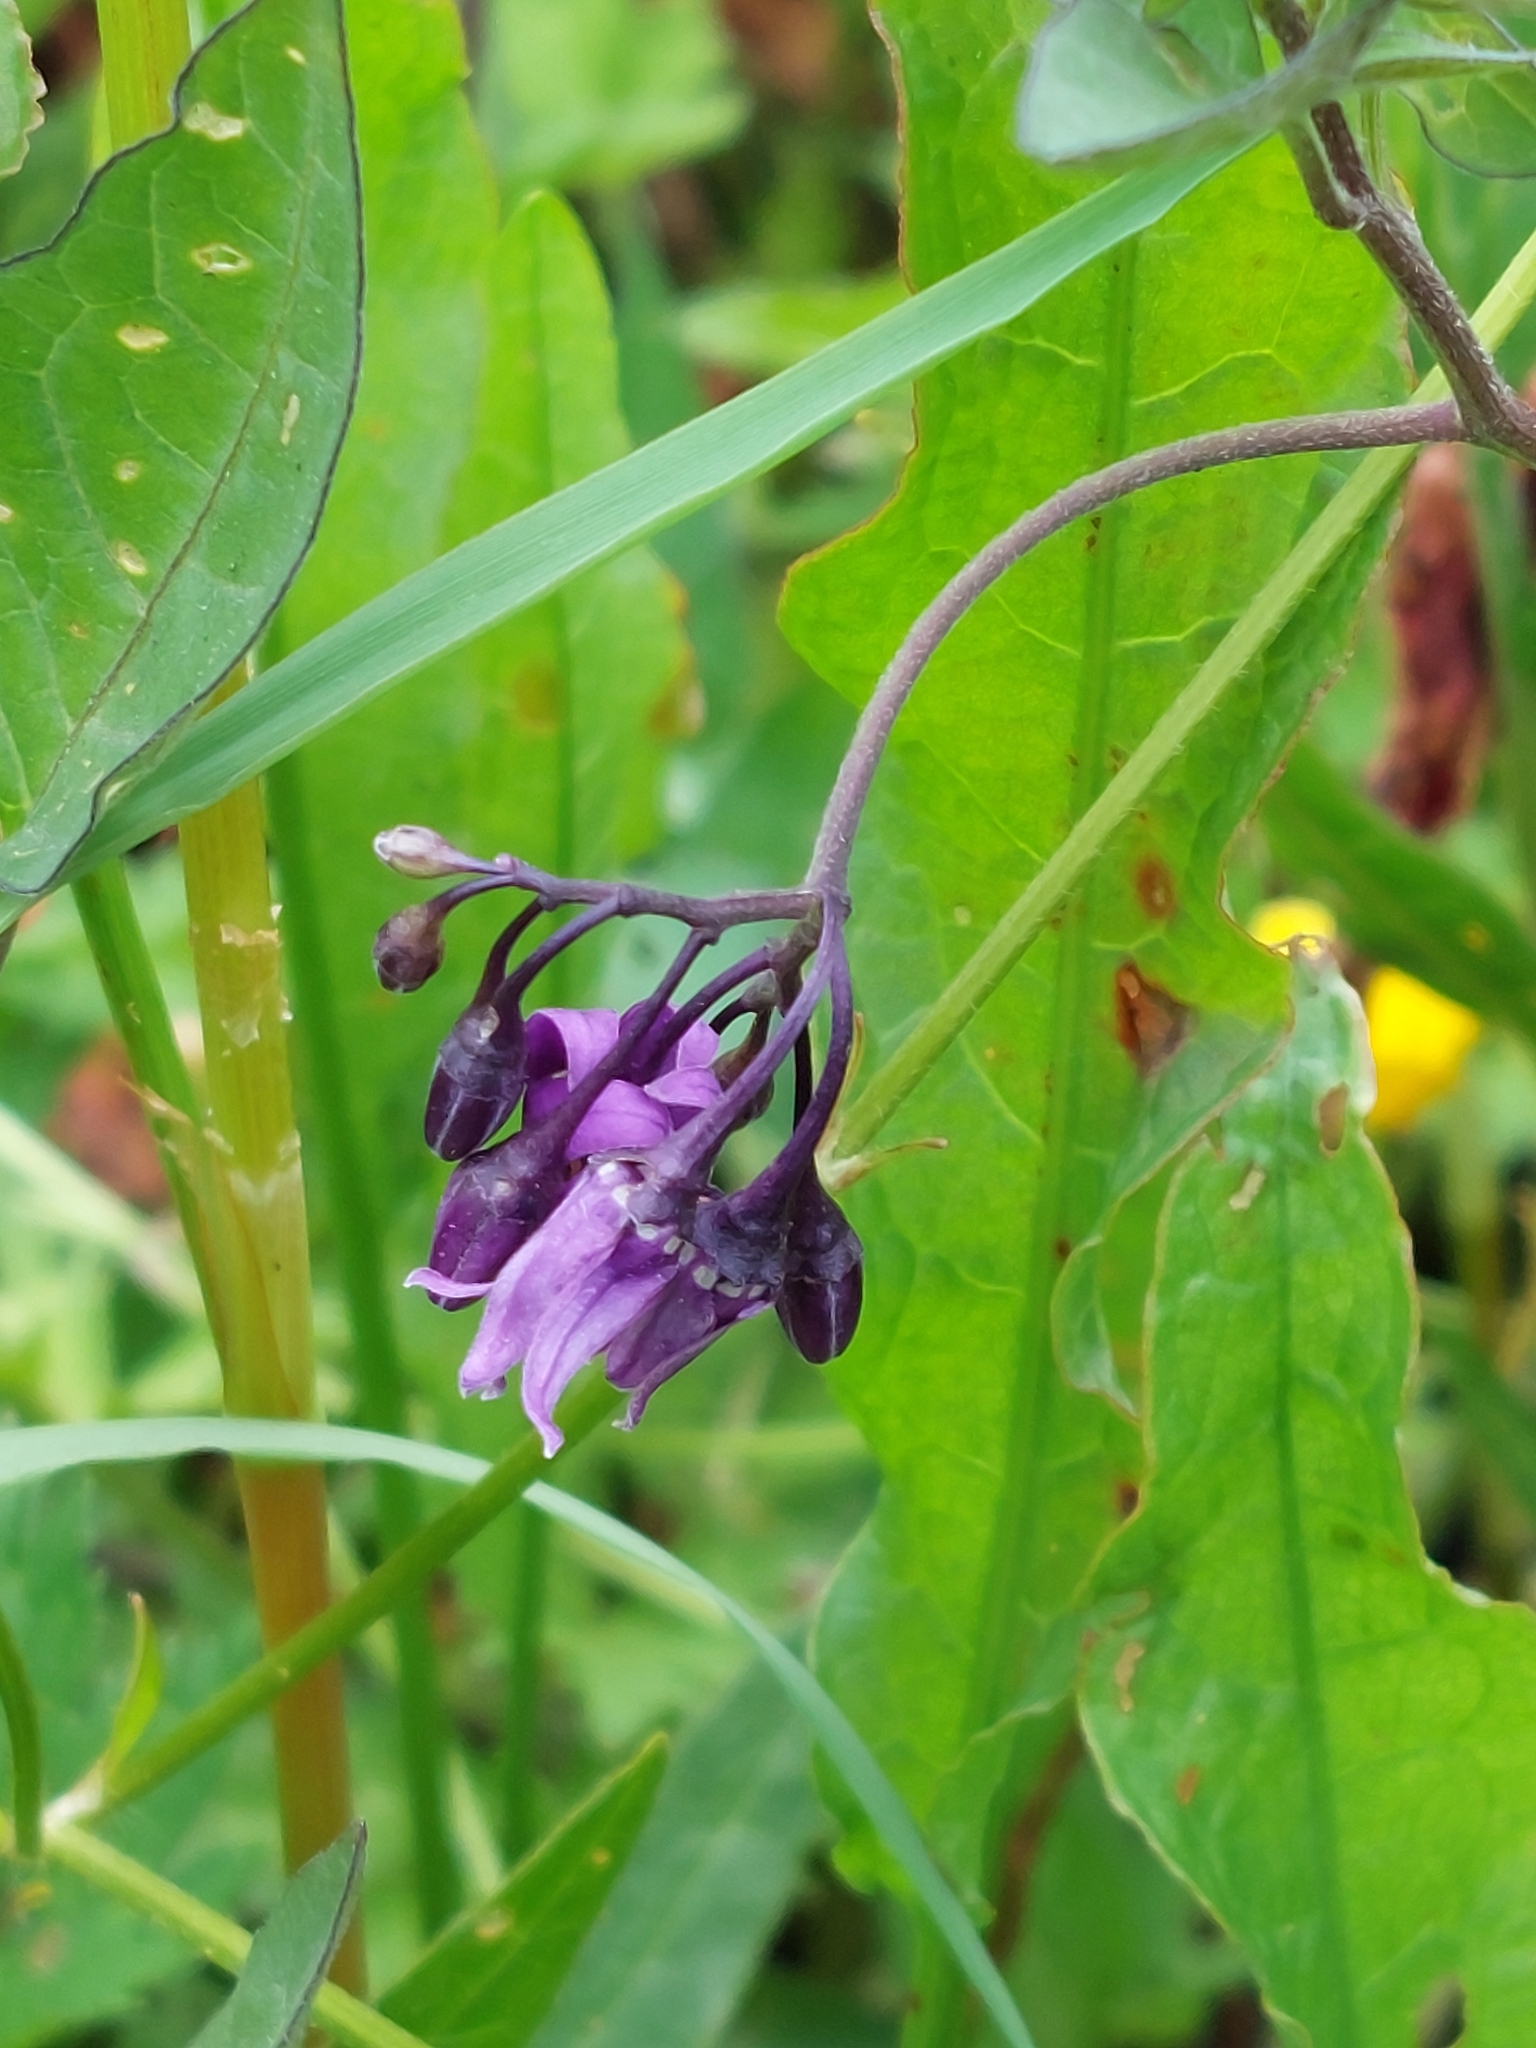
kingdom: Plantae
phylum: Tracheophyta
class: Magnoliopsida
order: Solanales
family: Solanaceae
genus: Solanum
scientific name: Solanum dulcamara
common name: Climbing nightshade
